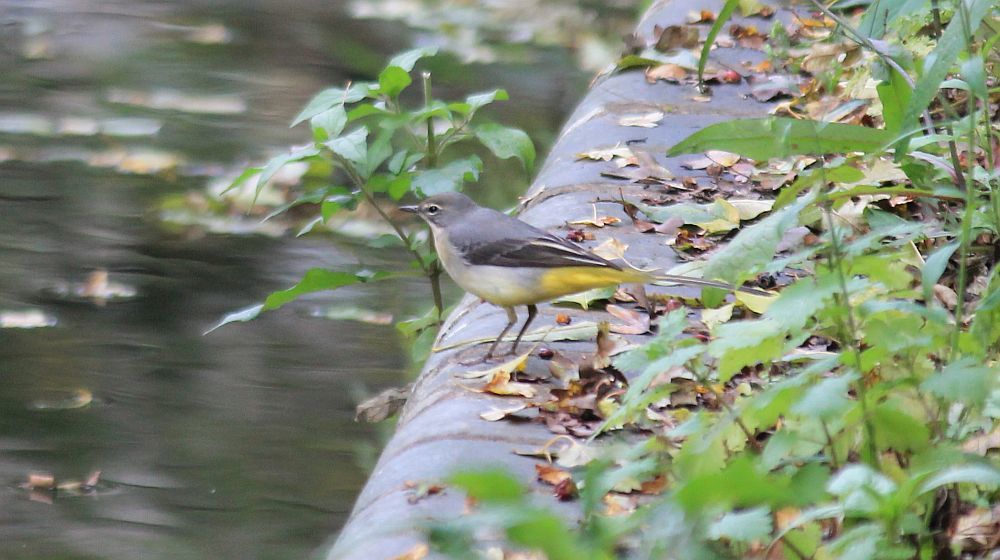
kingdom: Animalia
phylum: Chordata
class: Aves
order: Passeriformes
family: Motacillidae
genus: Motacilla
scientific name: Motacilla cinerea
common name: Grey wagtail
